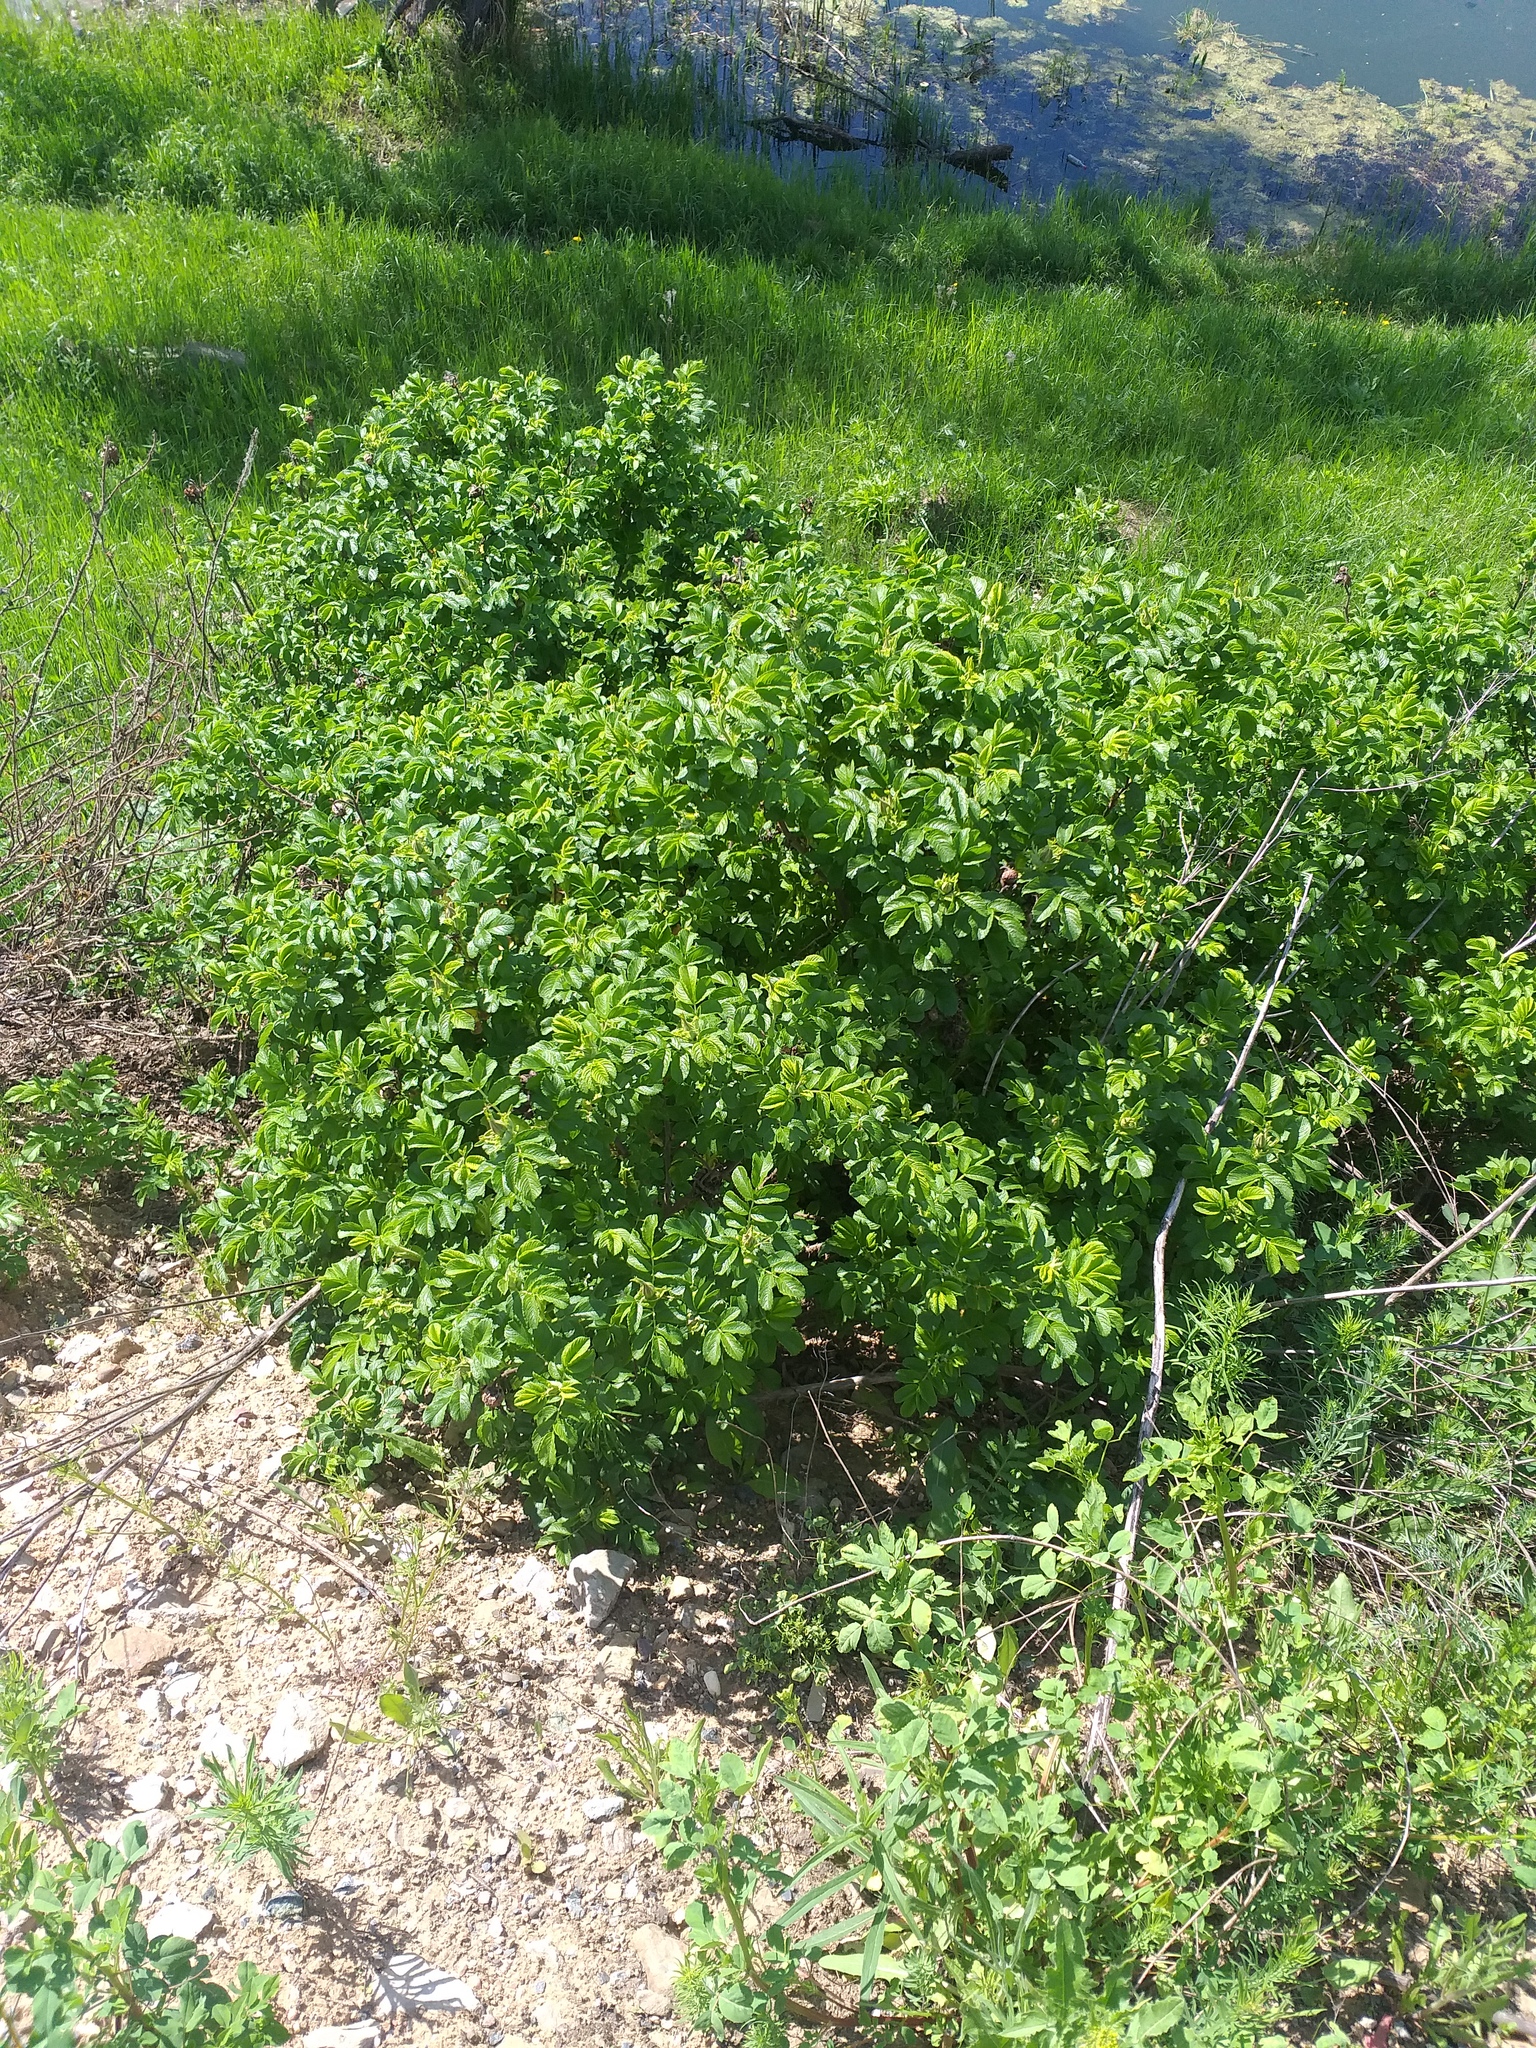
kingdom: Plantae
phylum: Tracheophyta
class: Magnoliopsida
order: Rosales
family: Rosaceae
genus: Rosa
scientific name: Rosa rugosa
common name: Japanese rose
